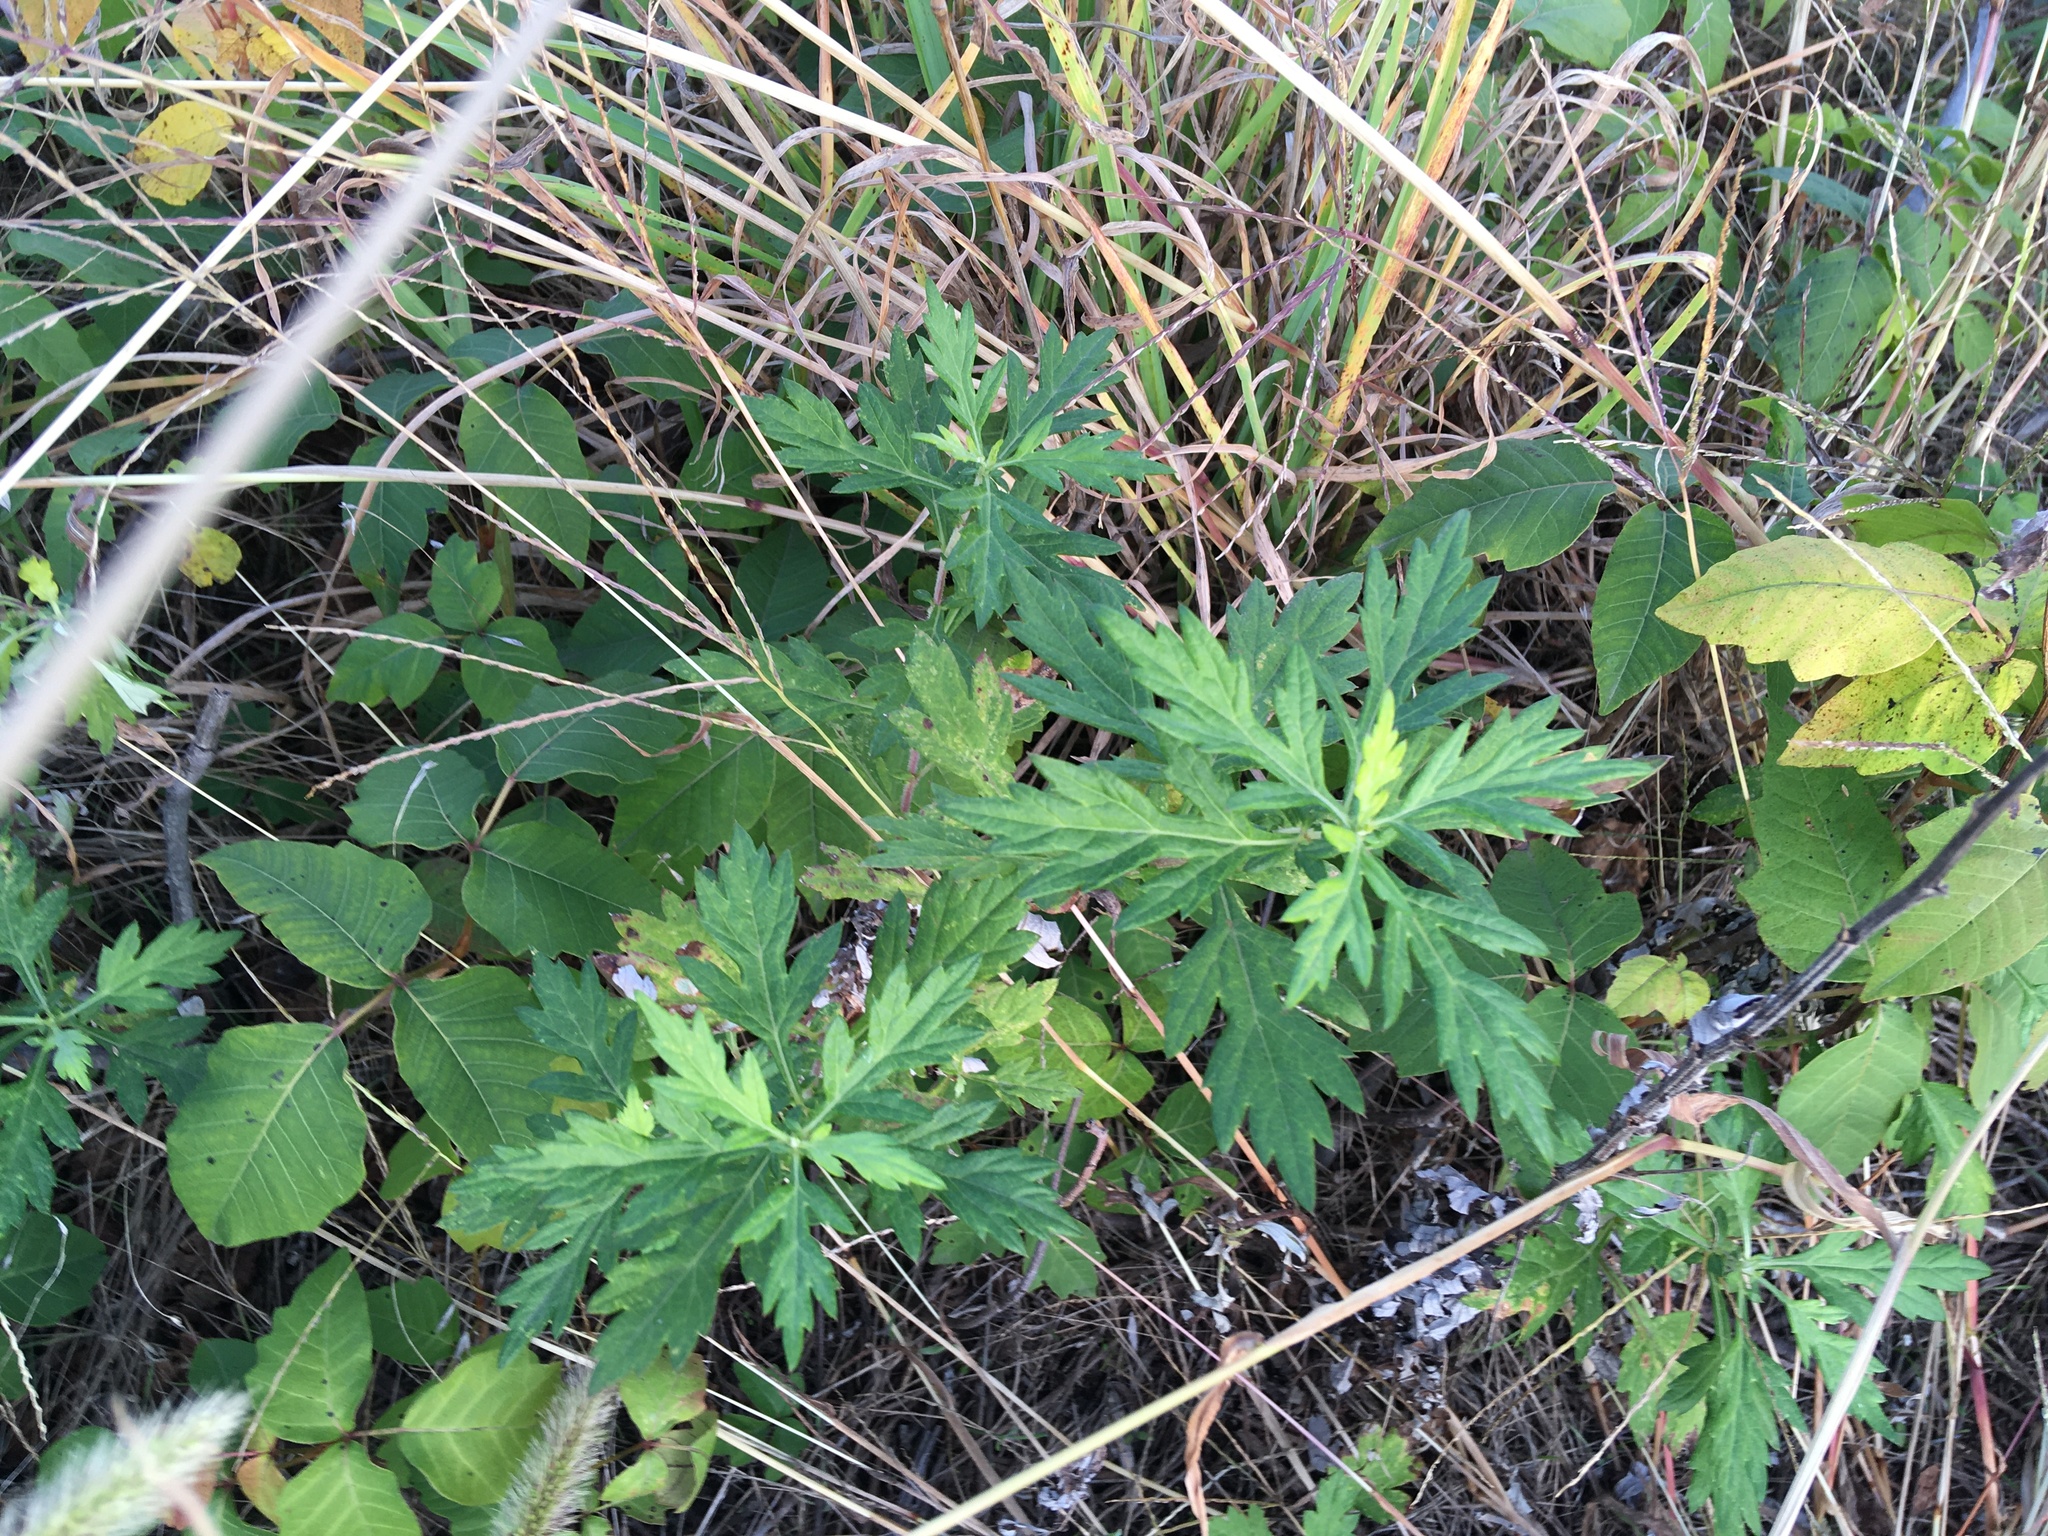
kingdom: Plantae
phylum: Tracheophyta
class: Magnoliopsida
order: Asterales
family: Asteraceae
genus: Artemisia
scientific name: Artemisia vulgaris
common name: Mugwort
